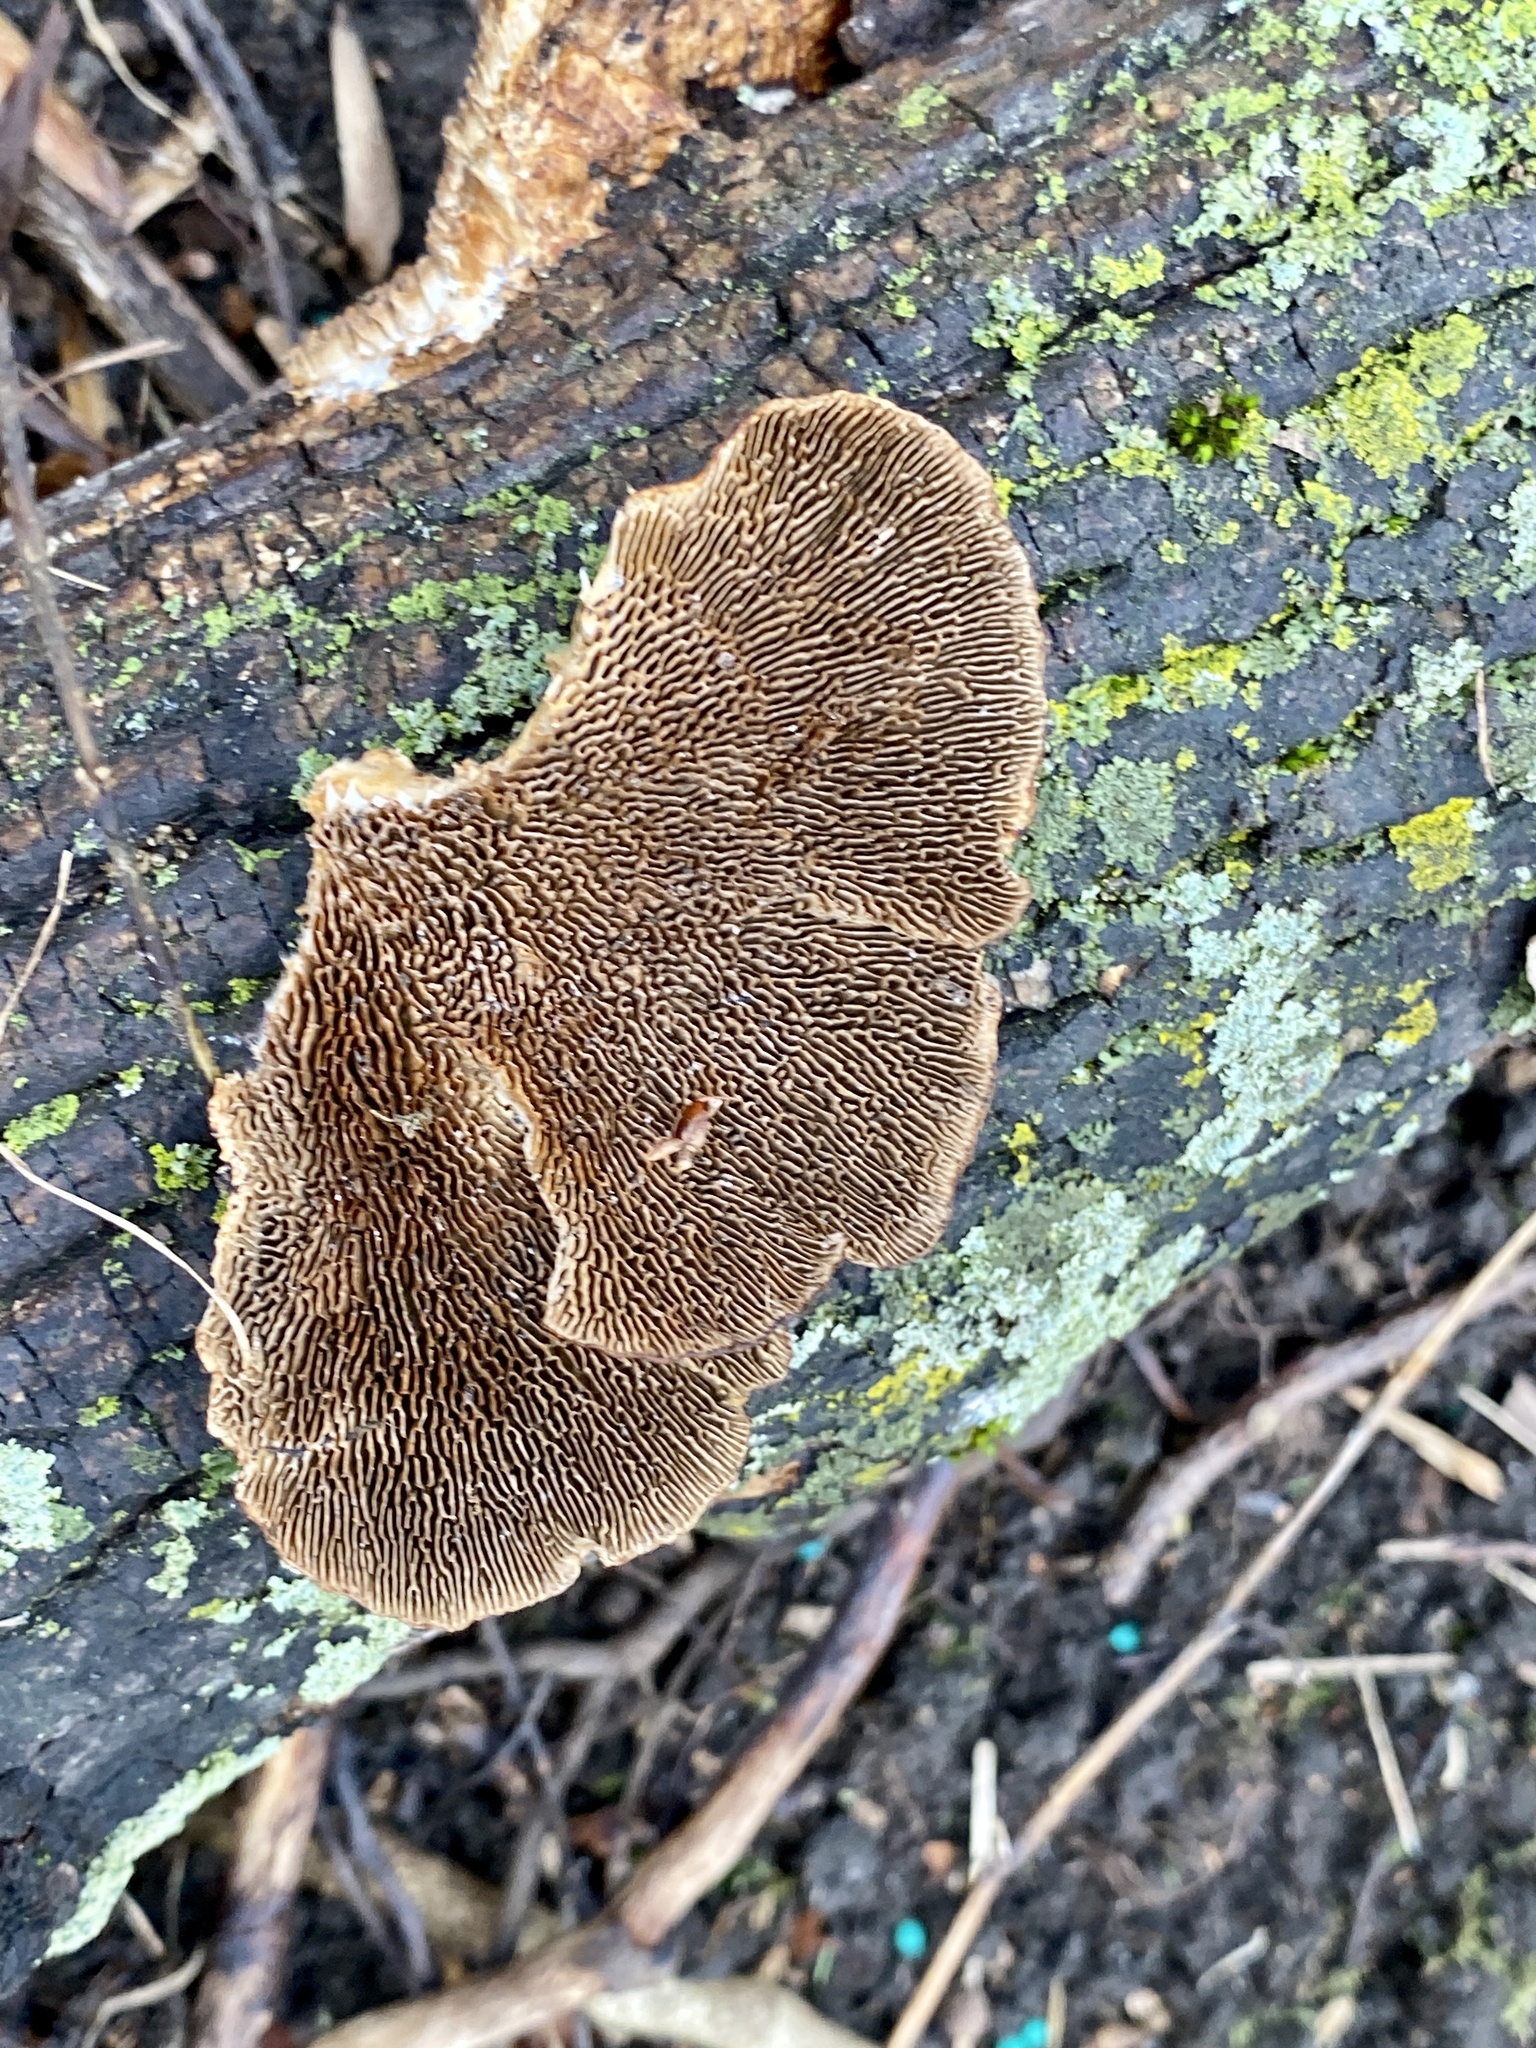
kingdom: Fungi
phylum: Basidiomycota
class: Agaricomycetes
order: Polyporales
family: Polyporaceae
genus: Daedaleopsis
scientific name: Daedaleopsis confragosa
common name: Blushing bracket
